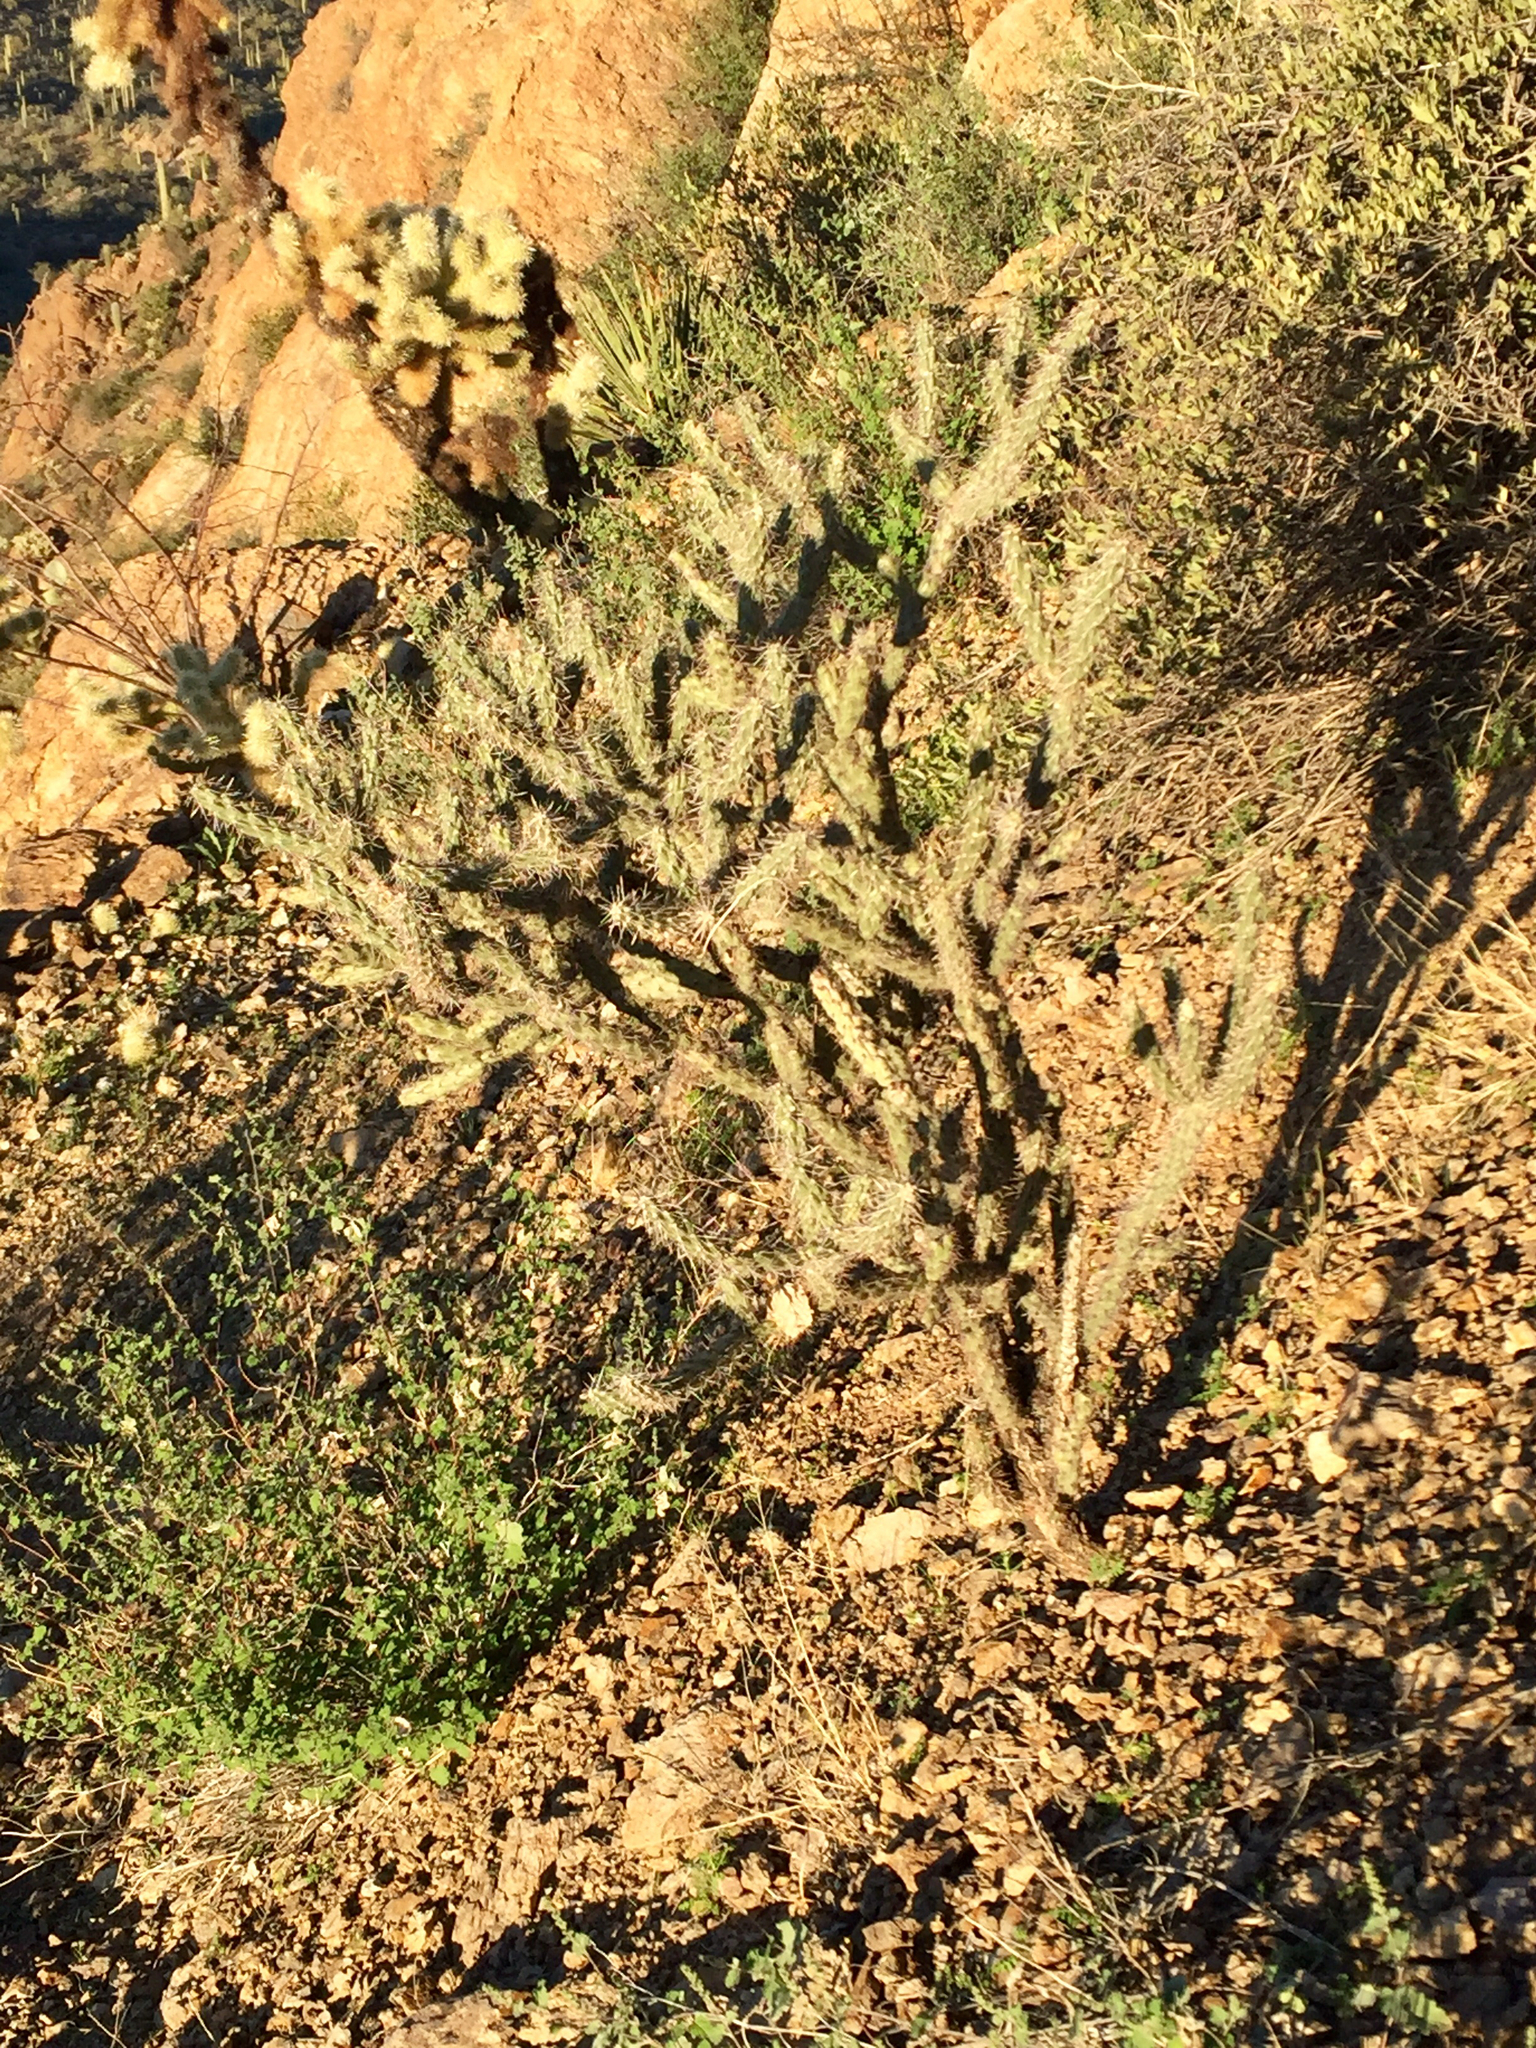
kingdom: Plantae
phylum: Tracheophyta
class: Magnoliopsida
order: Caryophyllales
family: Cactaceae
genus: Cylindropuntia
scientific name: Cylindropuntia acanthocarpa
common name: Buckhorn cholla
